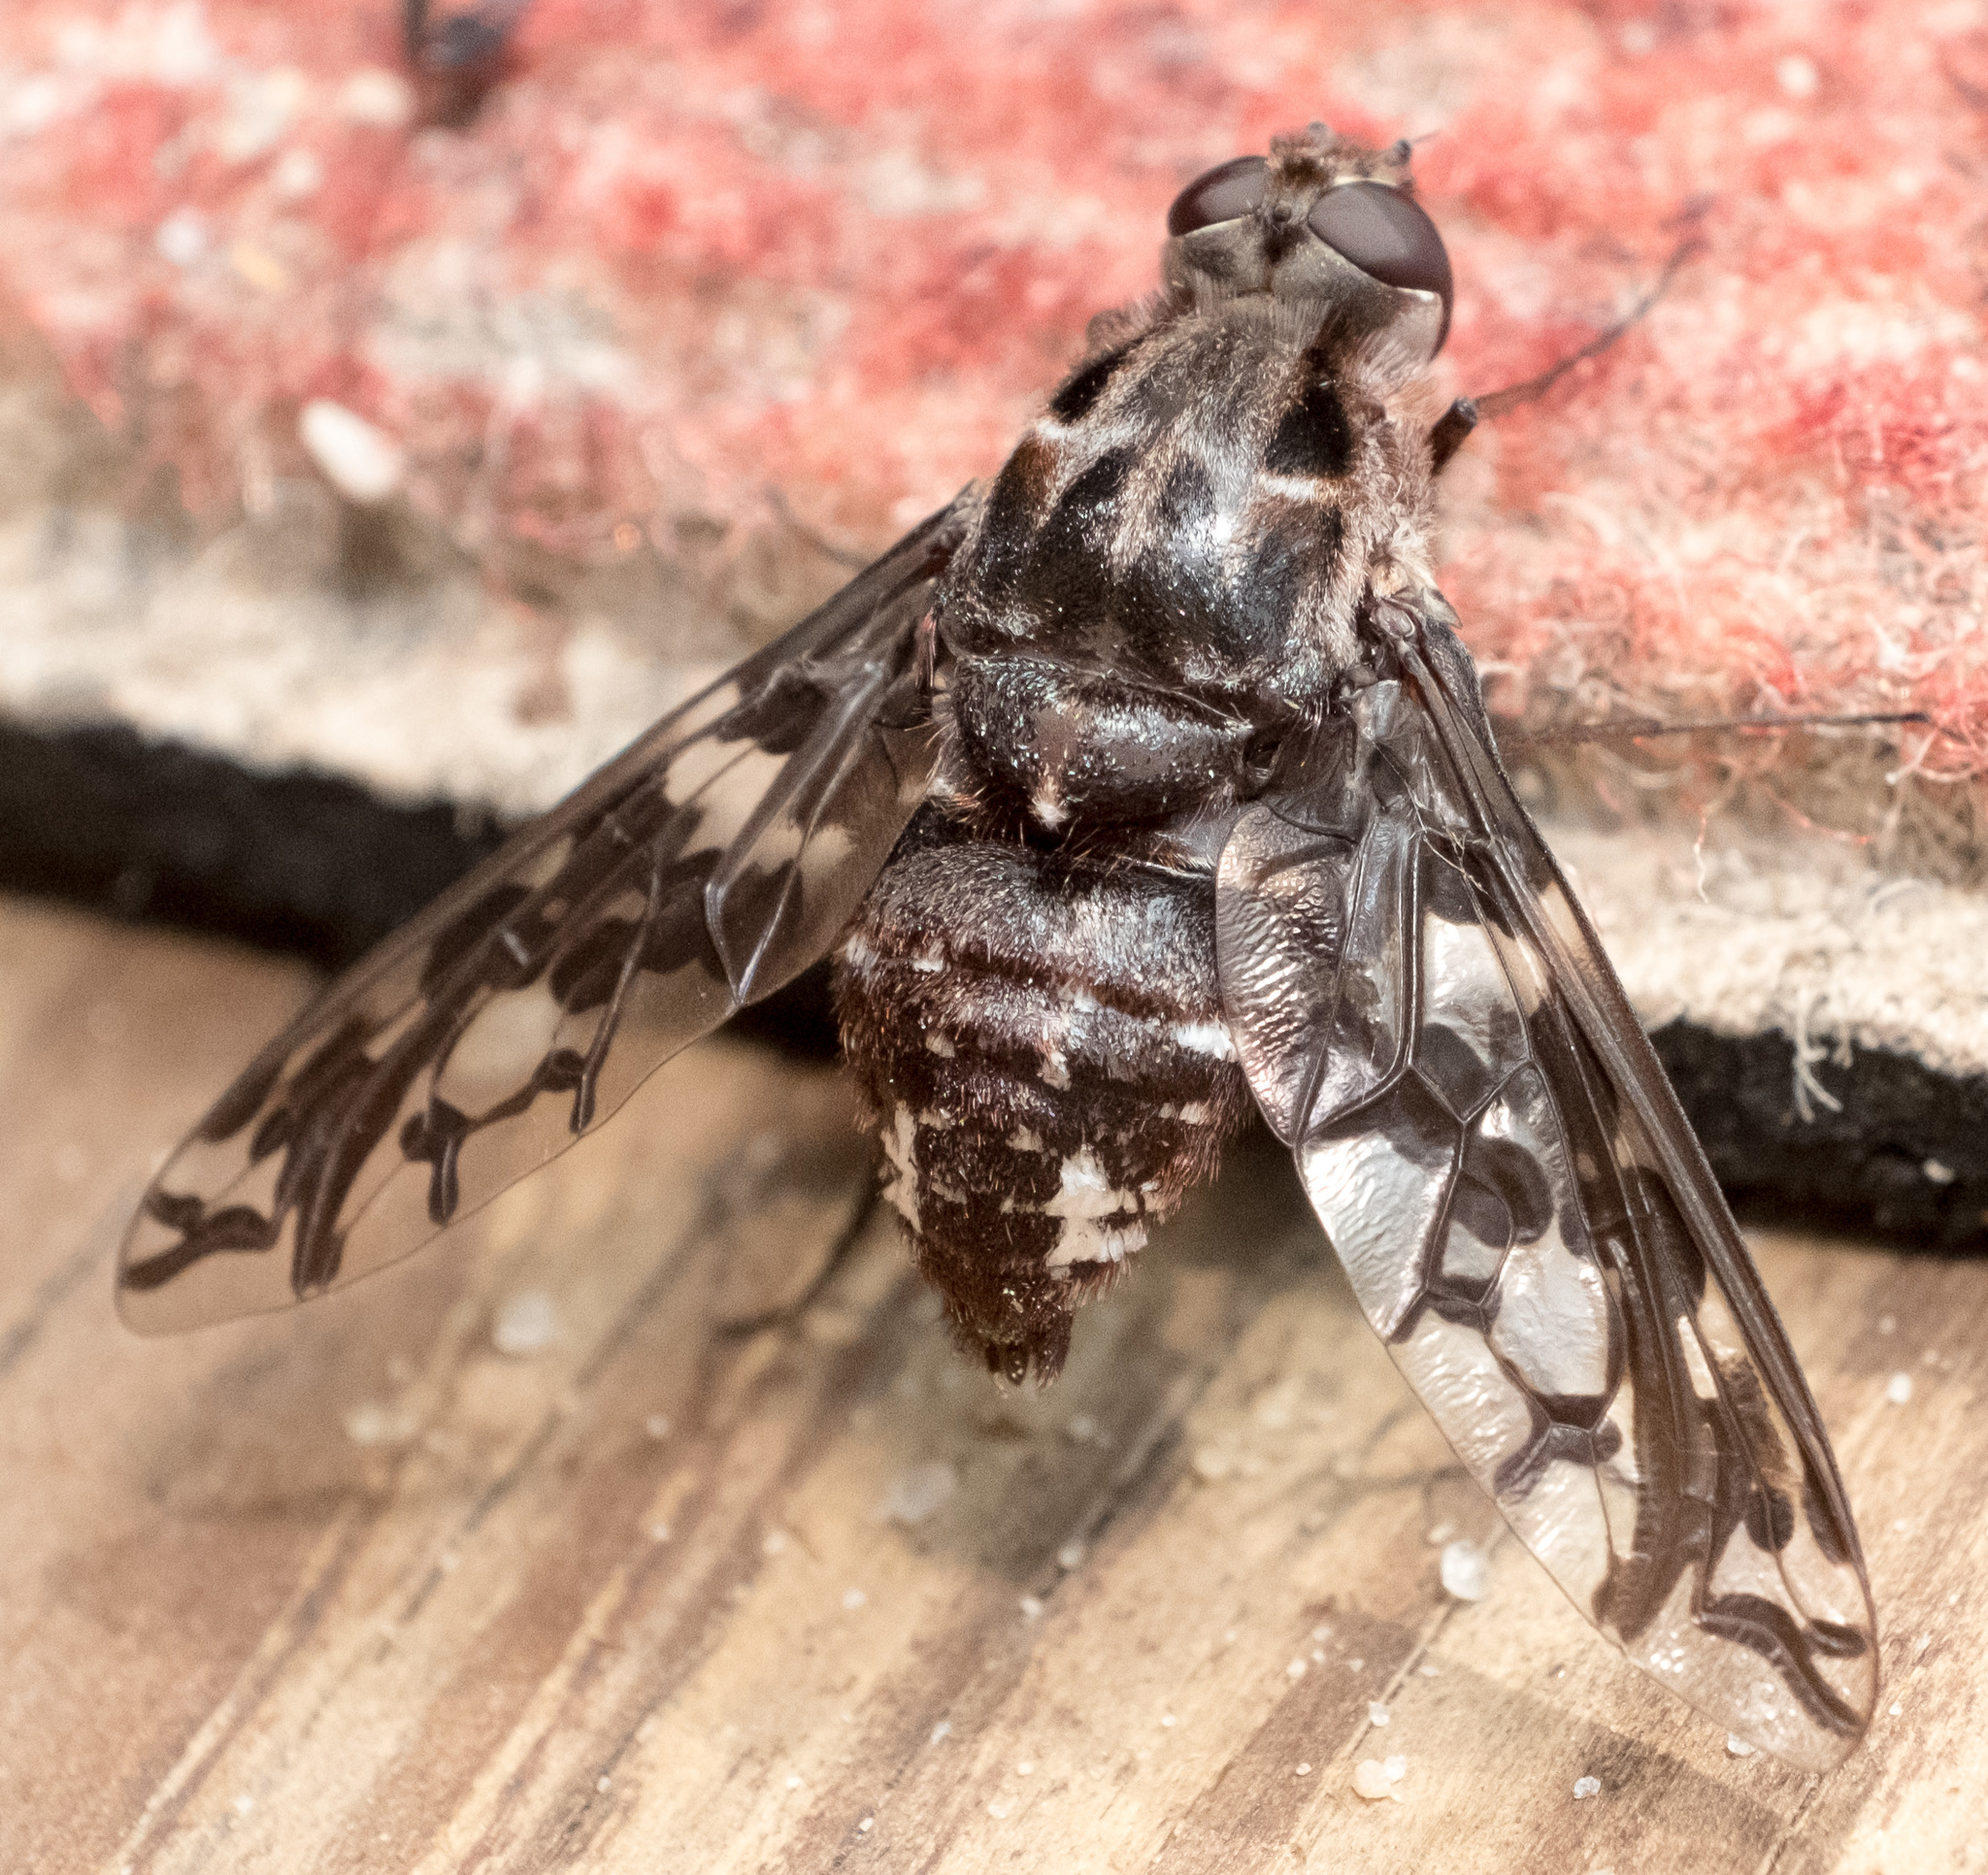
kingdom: Animalia
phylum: Arthropoda
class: Insecta
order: Diptera
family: Bombyliidae
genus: Xenox
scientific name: Xenox tigrinus
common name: Tiger bee fly
